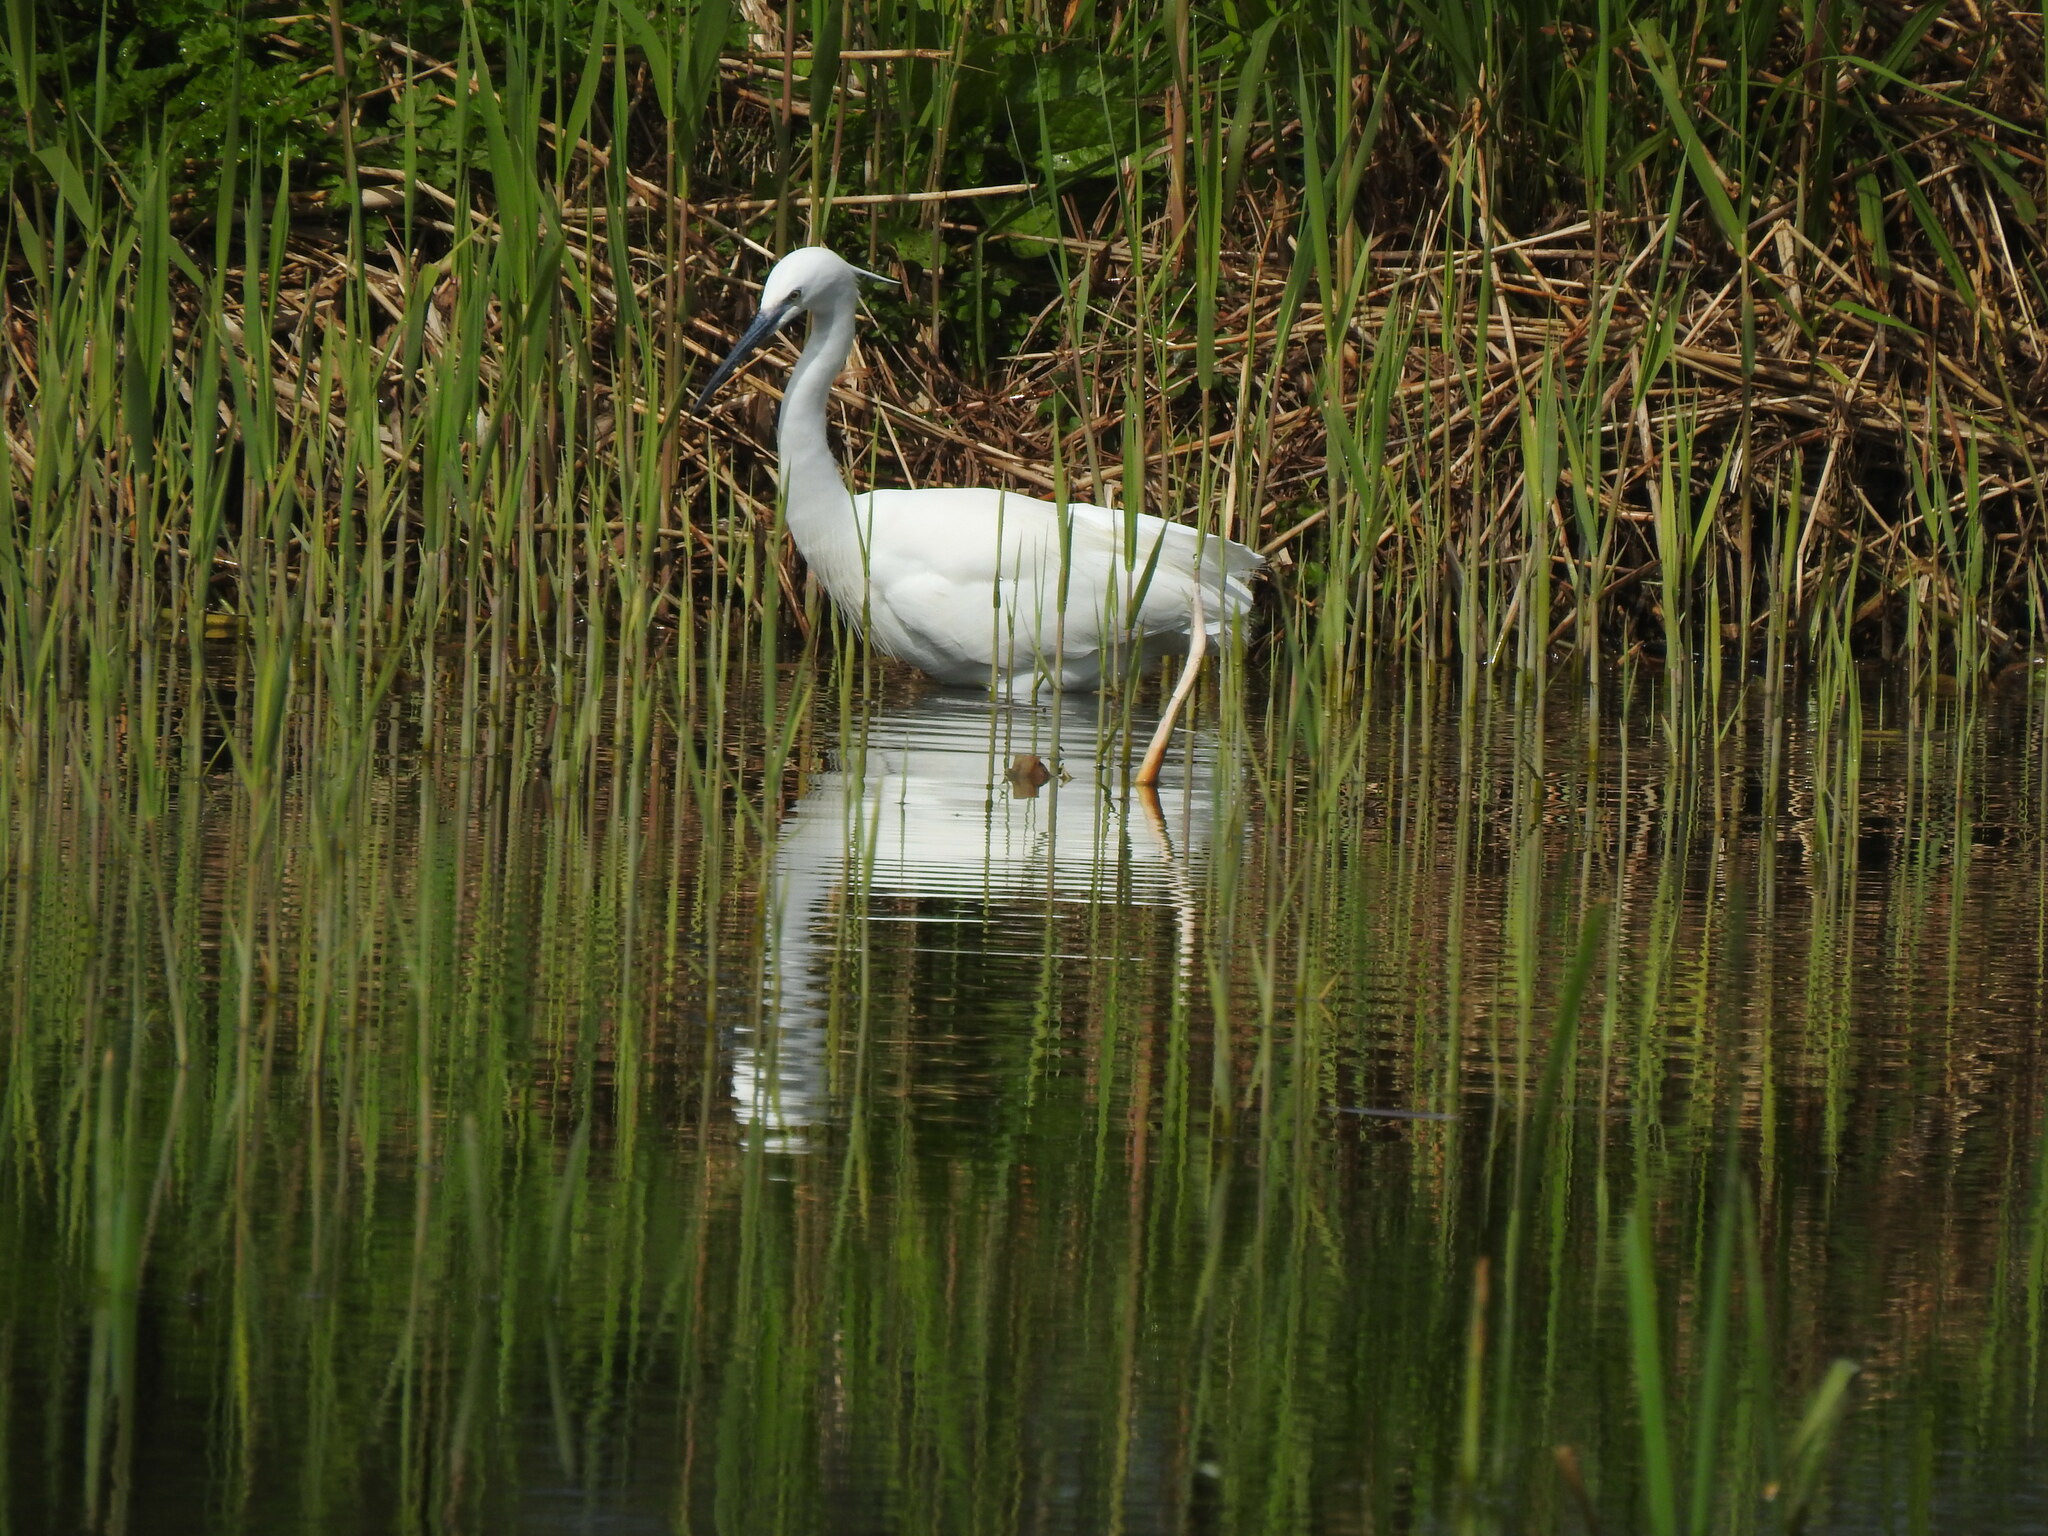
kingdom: Animalia
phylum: Chordata
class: Aves
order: Pelecaniformes
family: Ardeidae
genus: Egretta
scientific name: Egretta garzetta
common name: Little egret
